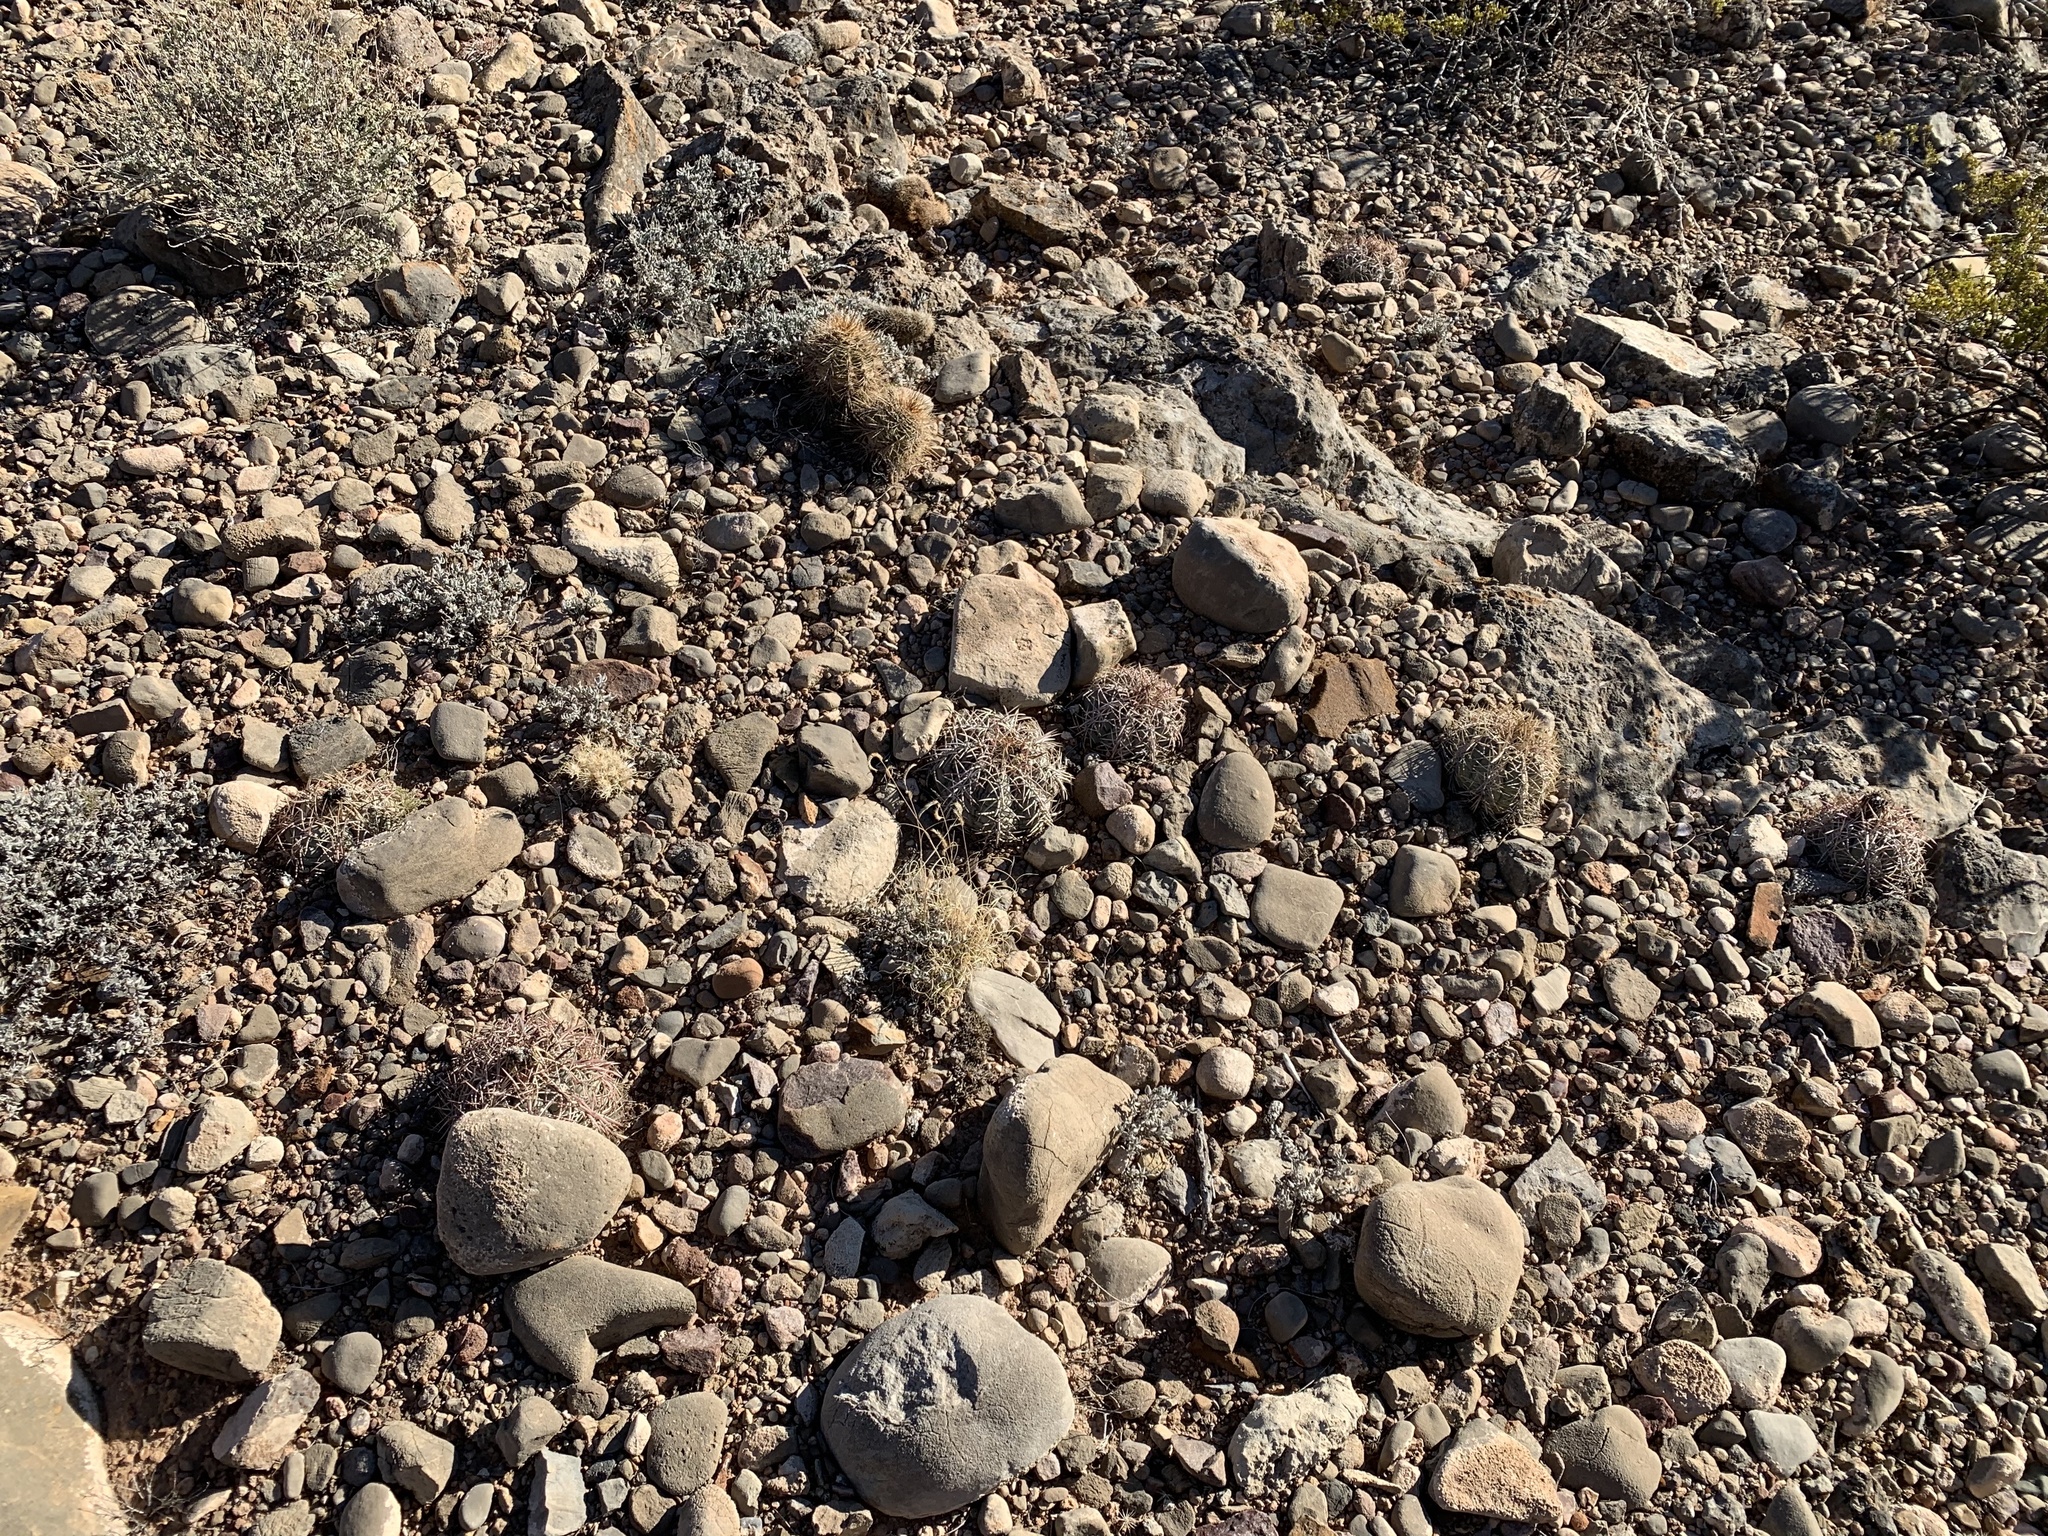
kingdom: Plantae
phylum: Tracheophyta
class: Magnoliopsida
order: Caryophyllales
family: Cactaceae
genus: Echinocactus
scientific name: Echinocactus horizonthalonius
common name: Devilshead
